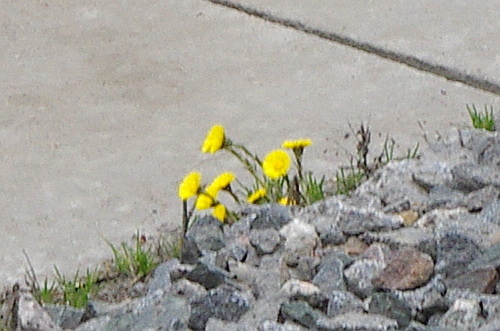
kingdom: Plantae
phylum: Tracheophyta
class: Magnoliopsida
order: Asterales
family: Asteraceae
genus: Tussilago
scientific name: Tussilago farfara
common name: Coltsfoot
